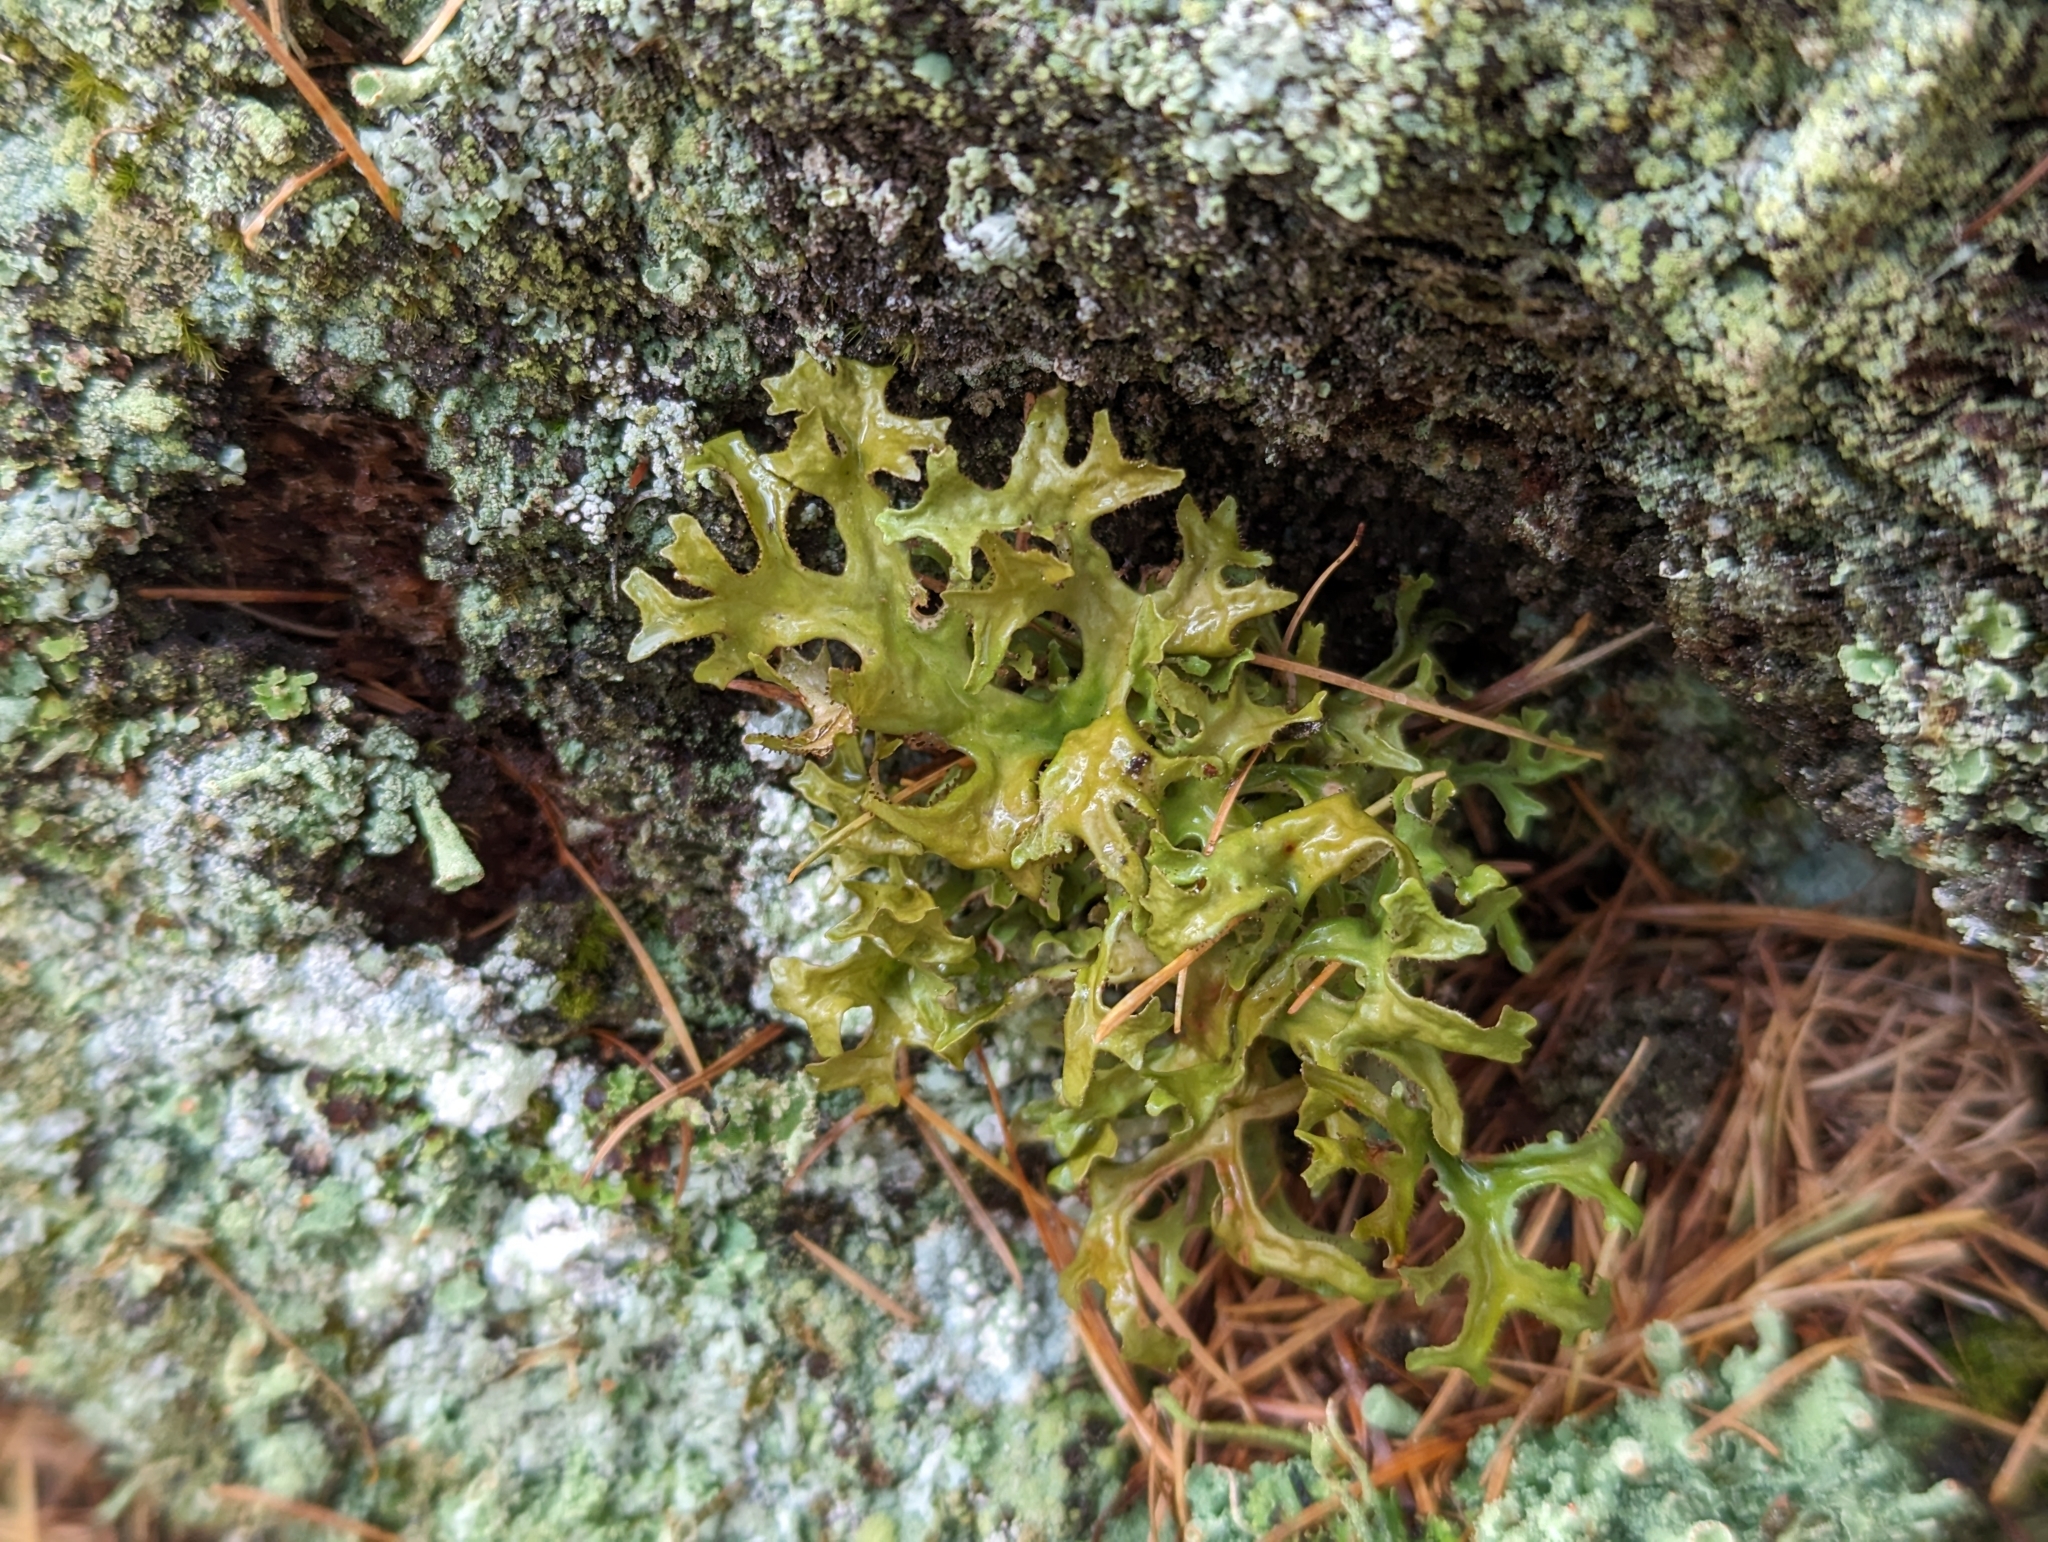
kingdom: Fungi
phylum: Ascomycota
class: Lecanoromycetes
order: Lecanorales
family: Parmeliaceae
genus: Cetraria
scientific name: Cetraria islandica
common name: Iceland lichen
